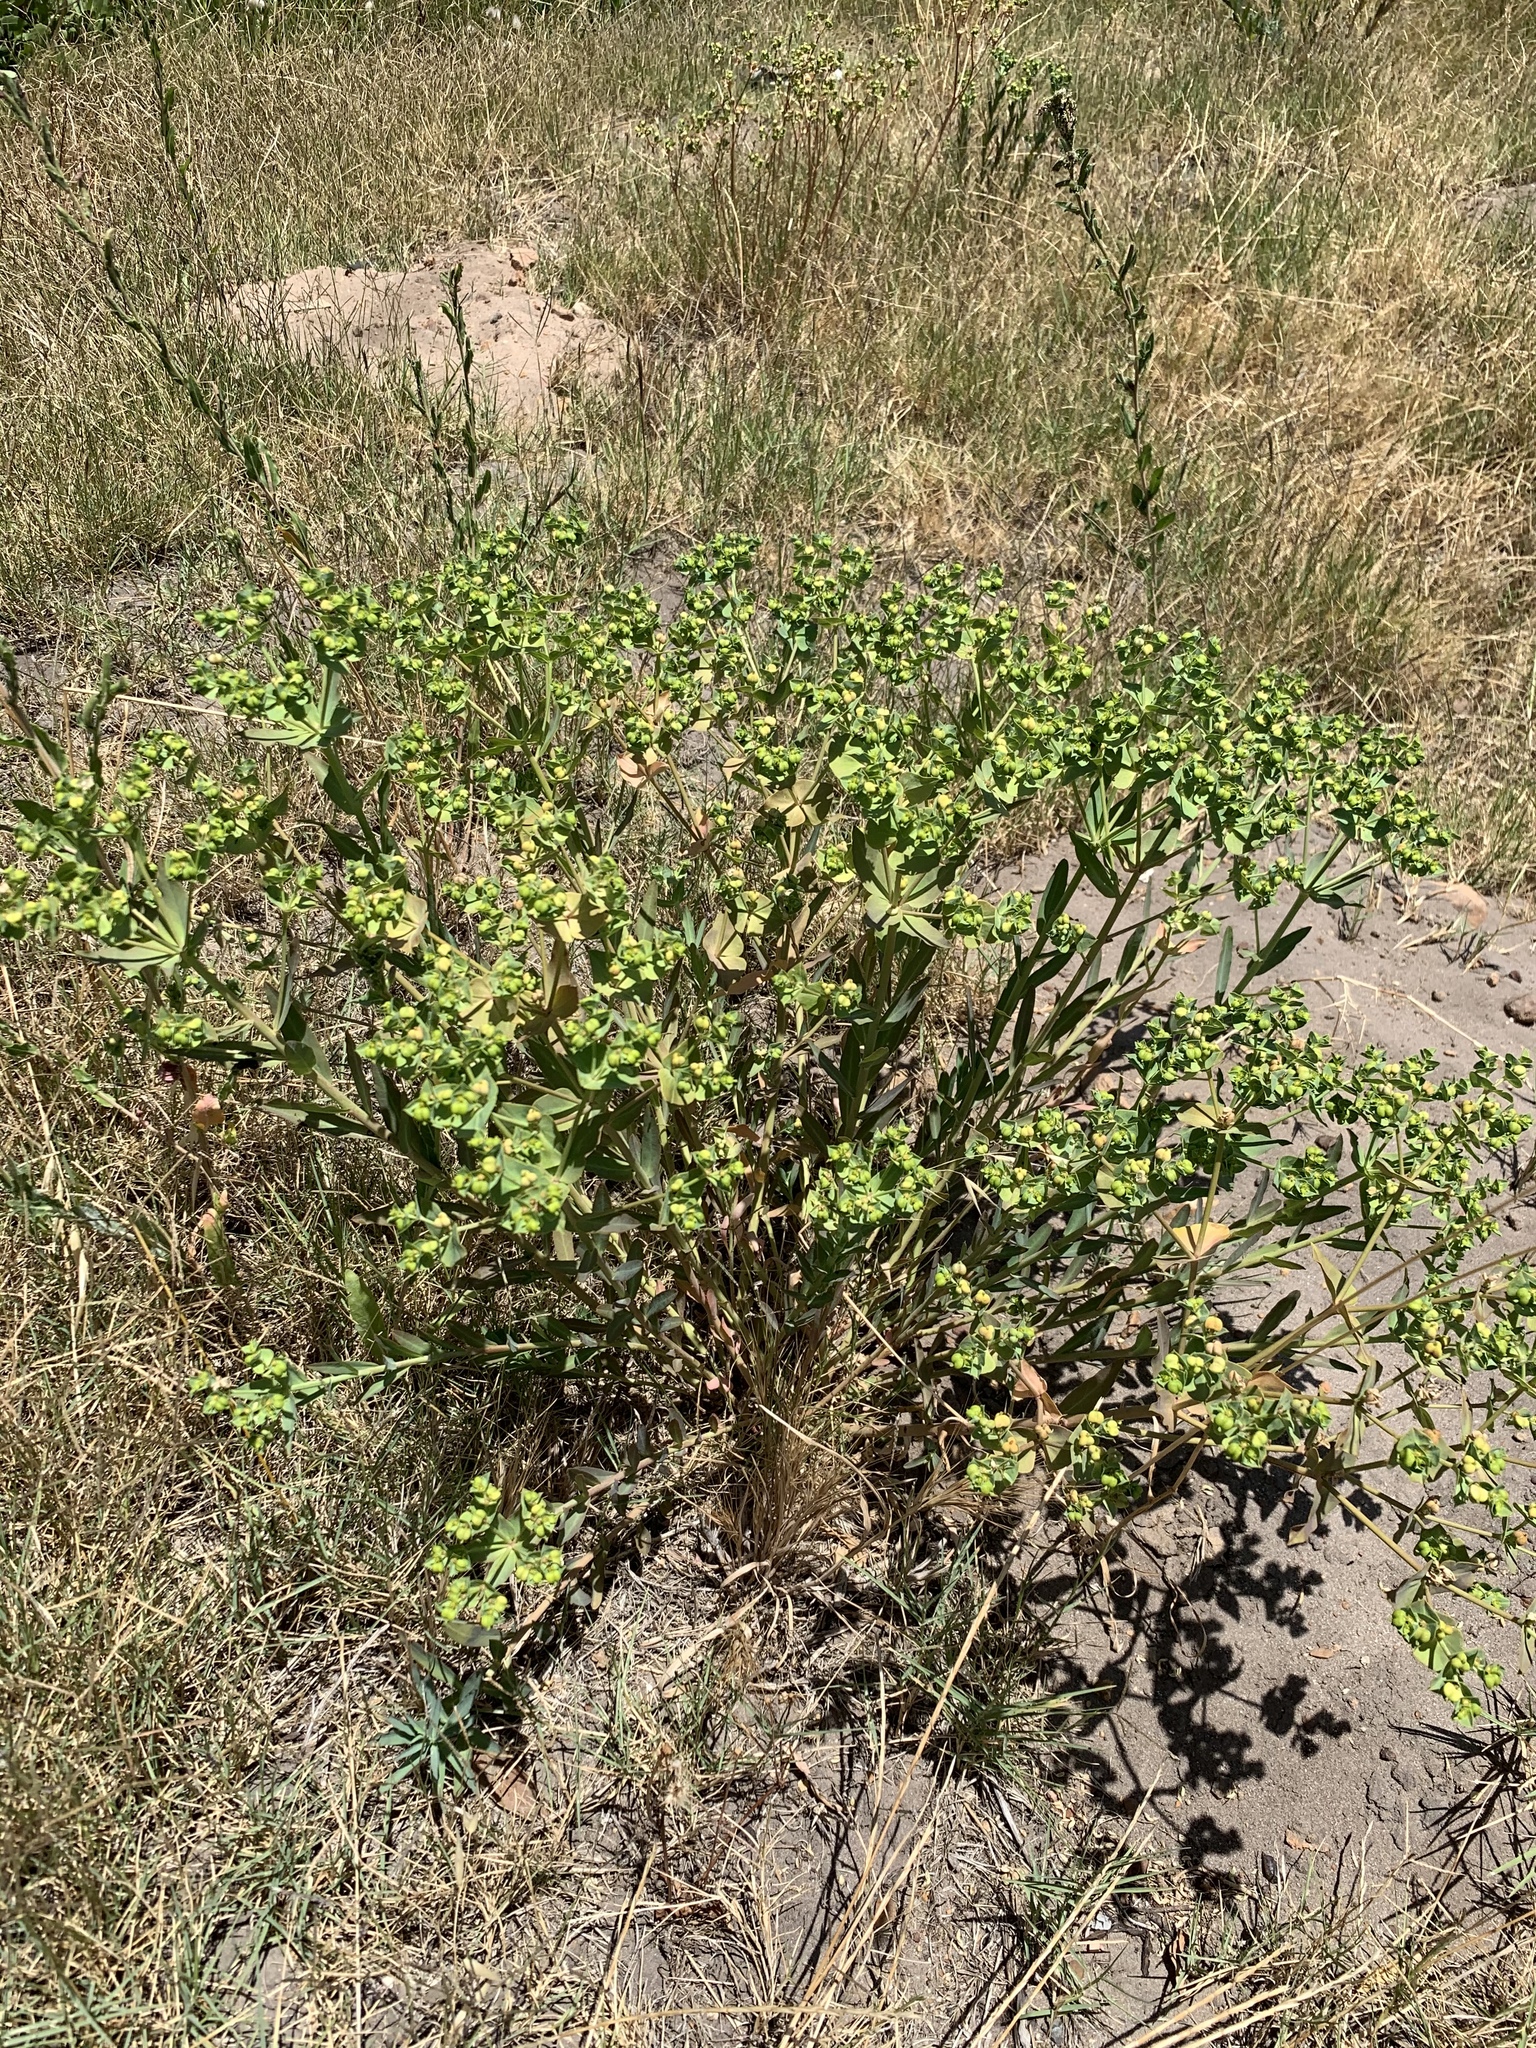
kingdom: Plantae
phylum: Tracheophyta
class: Magnoliopsida
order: Malpighiales
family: Euphorbiaceae
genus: Euphorbia
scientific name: Euphorbia terracina
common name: Geraldton carnation weed
